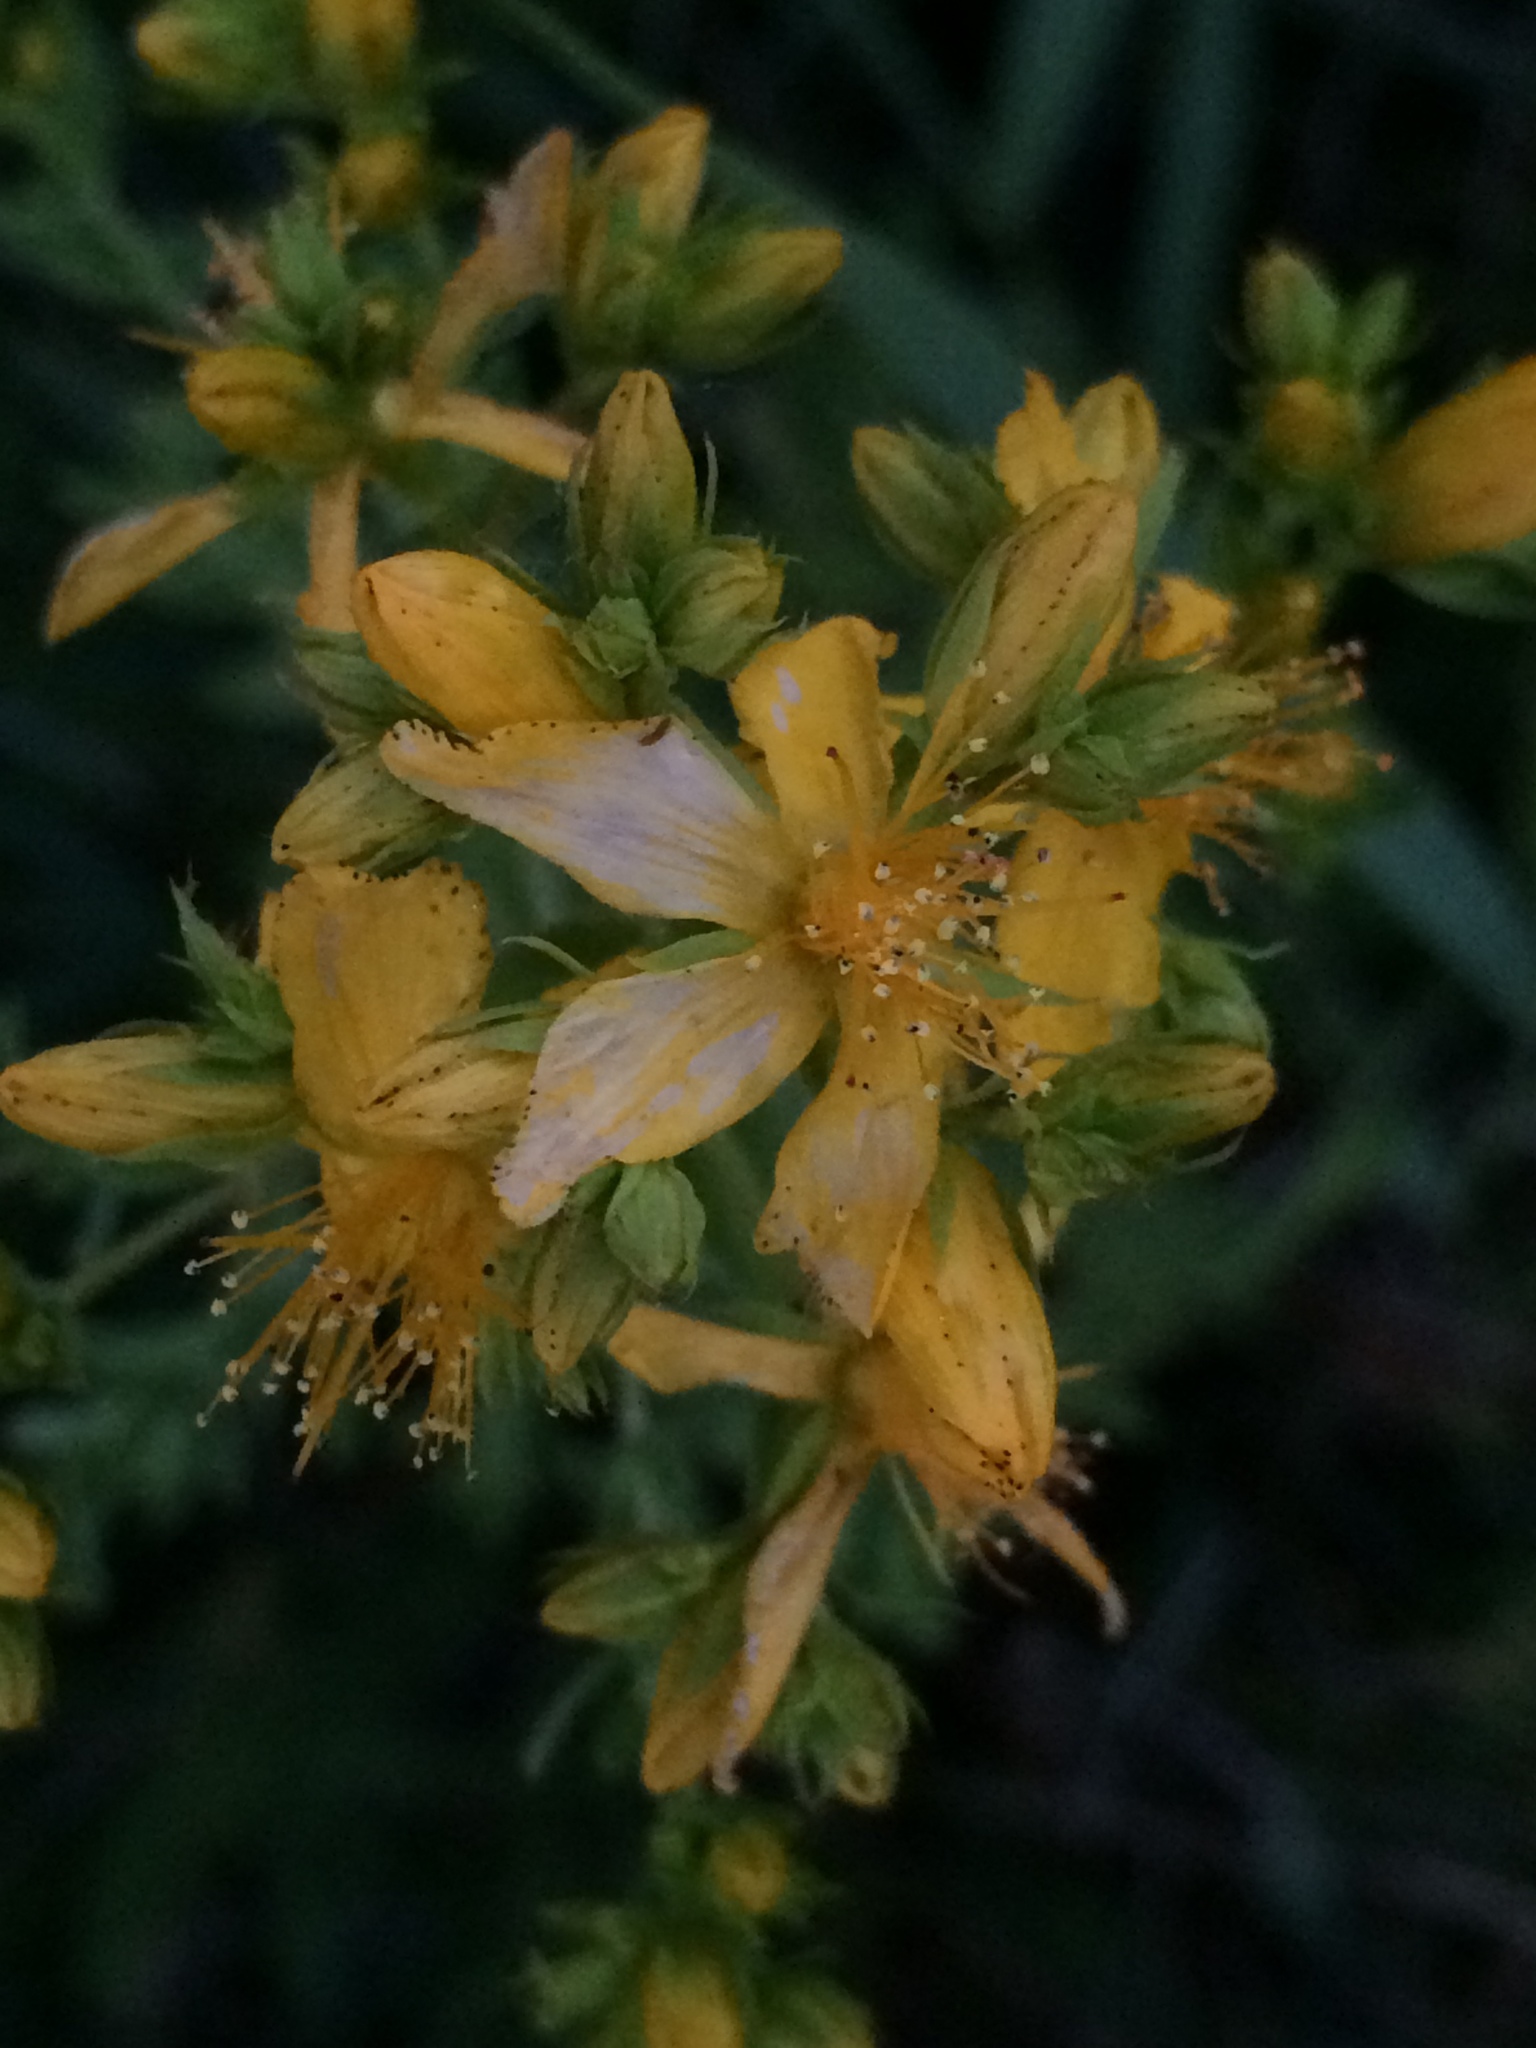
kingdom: Plantae
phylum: Tracheophyta
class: Magnoliopsida
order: Malpighiales
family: Hypericaceae
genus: Hypericum
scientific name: Hypericum perforatum
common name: Common st. johnswort
